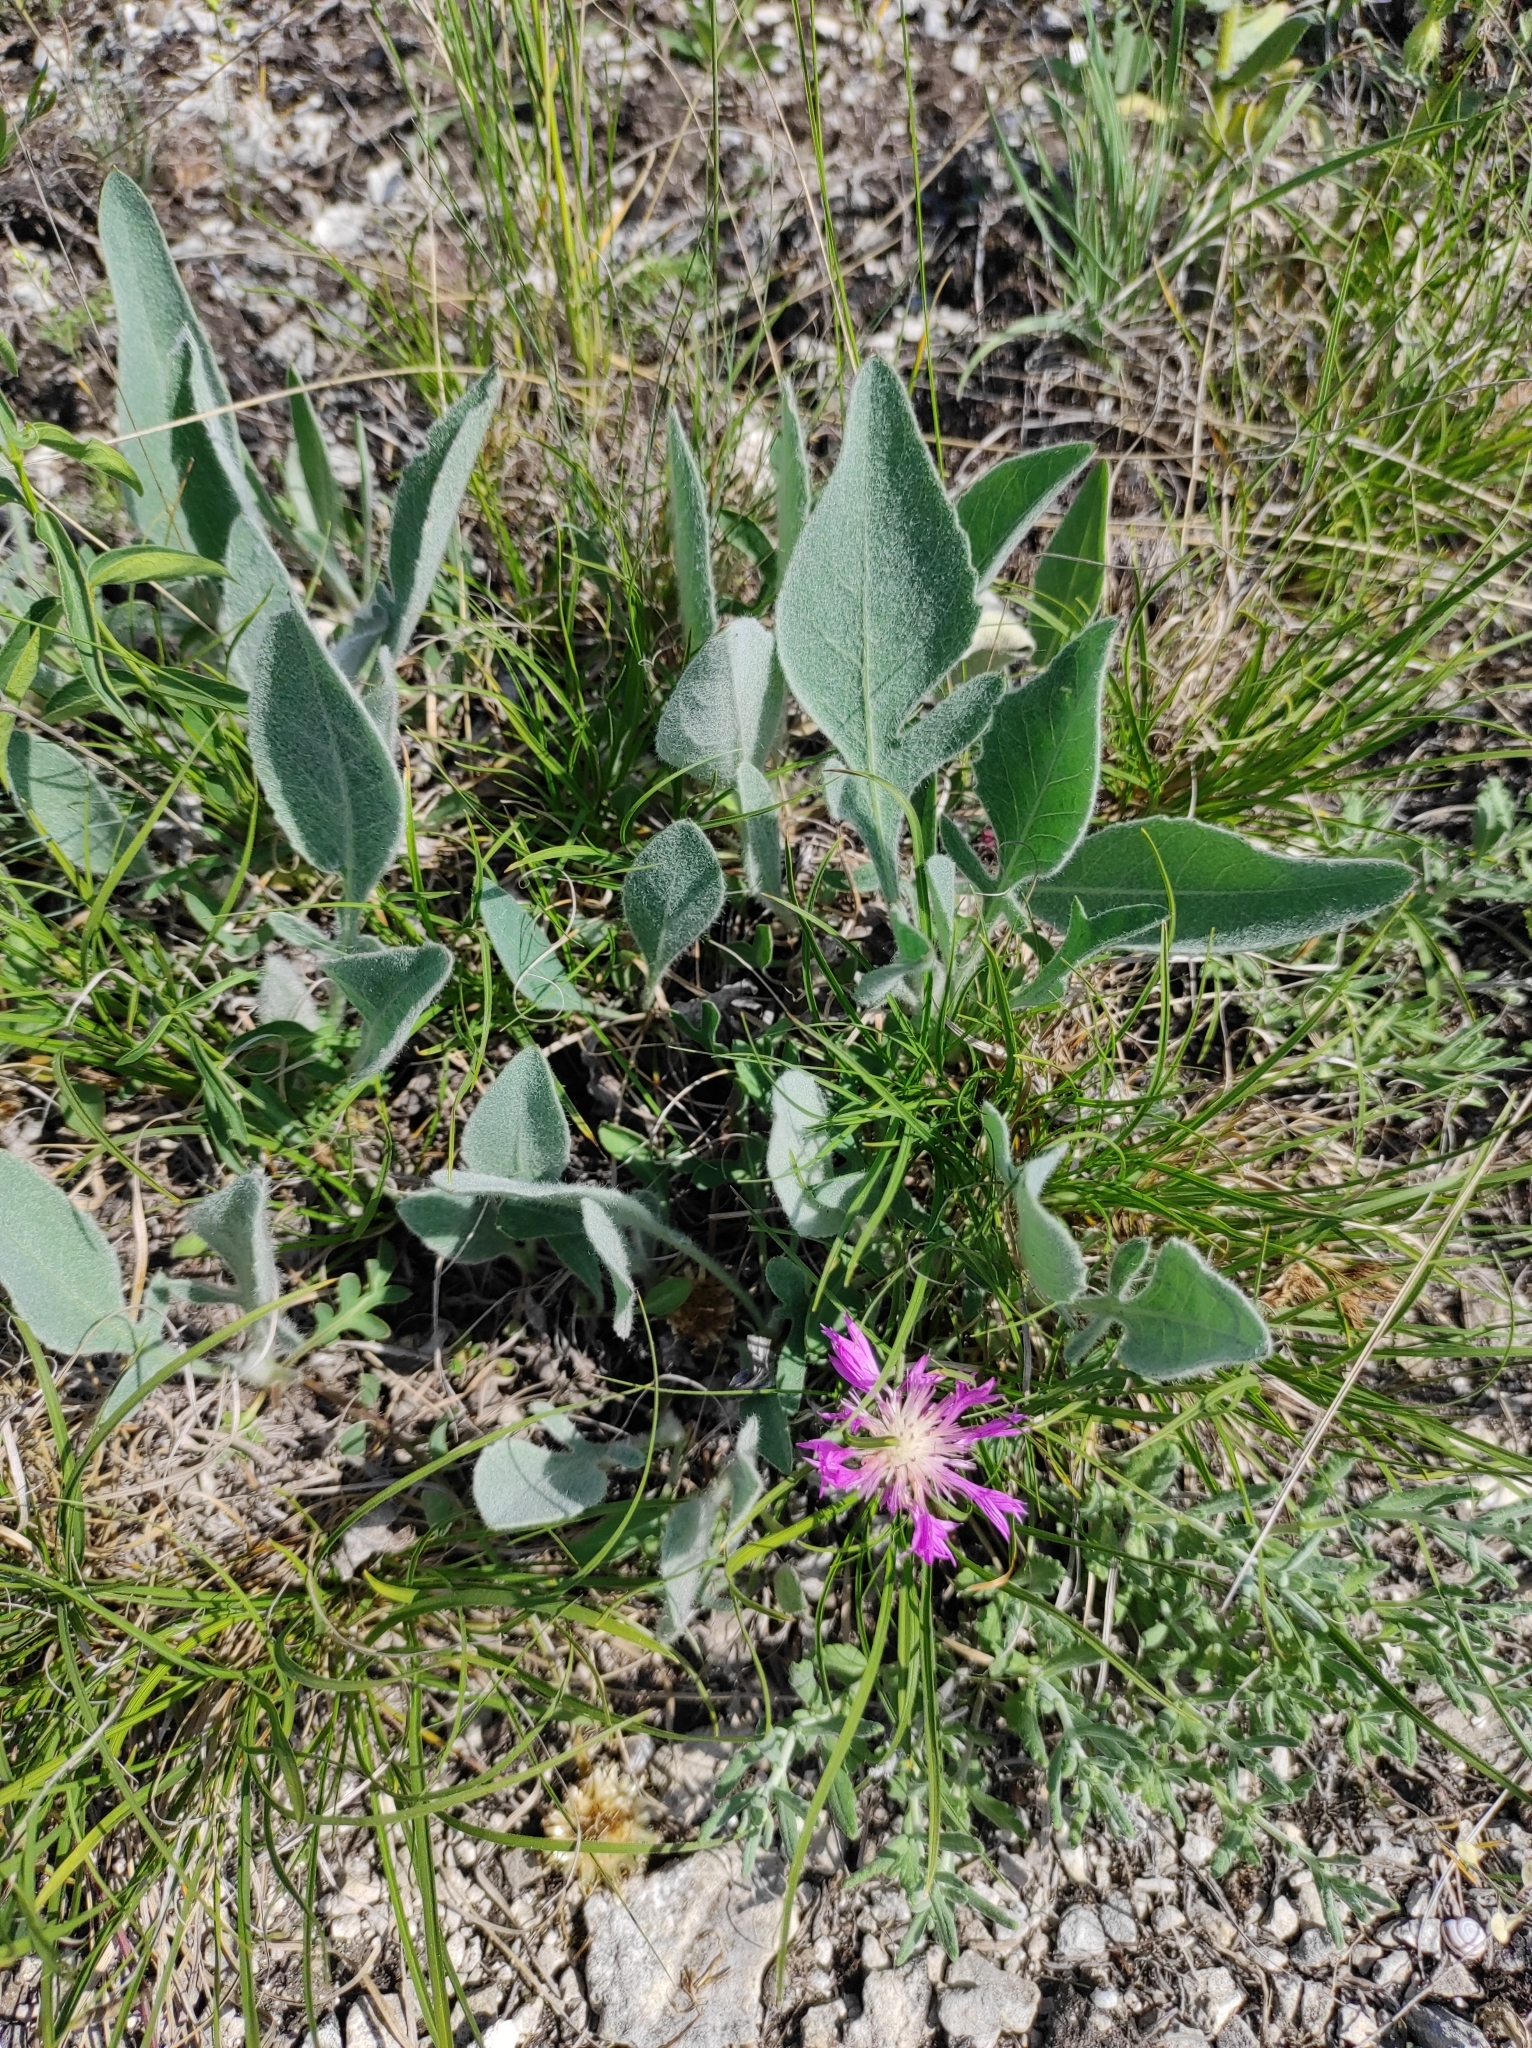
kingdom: Plantae
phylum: Tracheophyta
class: Magnoliopsida
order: Asterales
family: Asteraceae
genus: Psephellus
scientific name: Psephellus marschallianus
